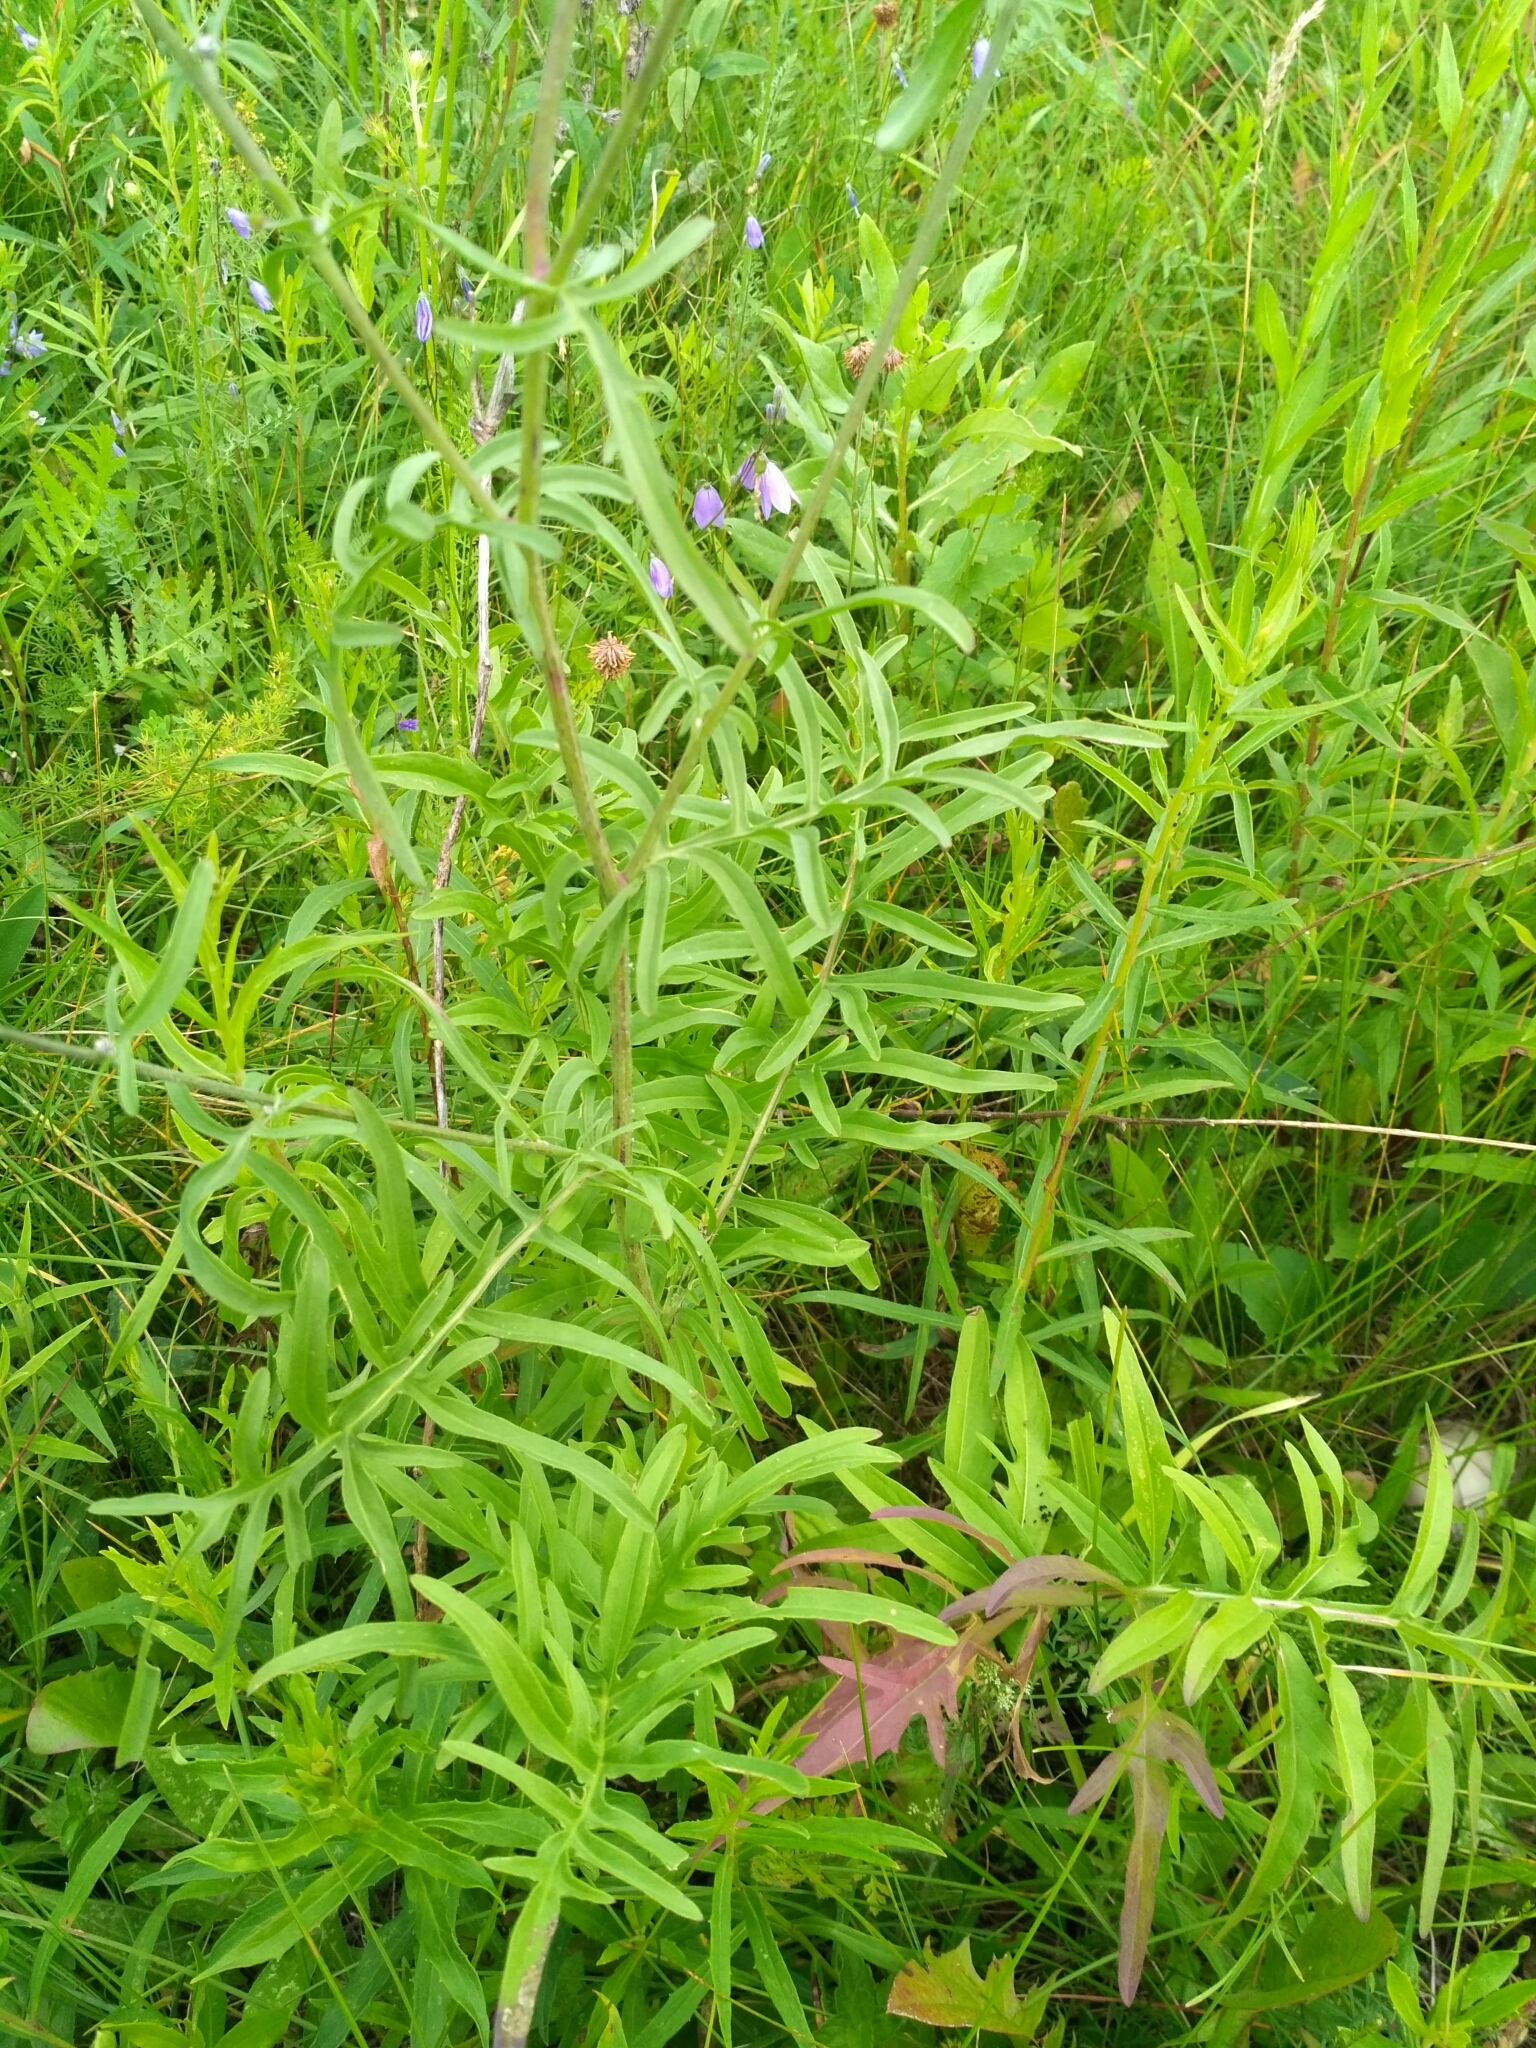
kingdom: Plantae
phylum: Tracheophyta
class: Magnoliopsida
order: Asterales
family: Asteraceae
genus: Centaurea
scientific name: Centaurea scabiosa
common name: Greater knapweed
